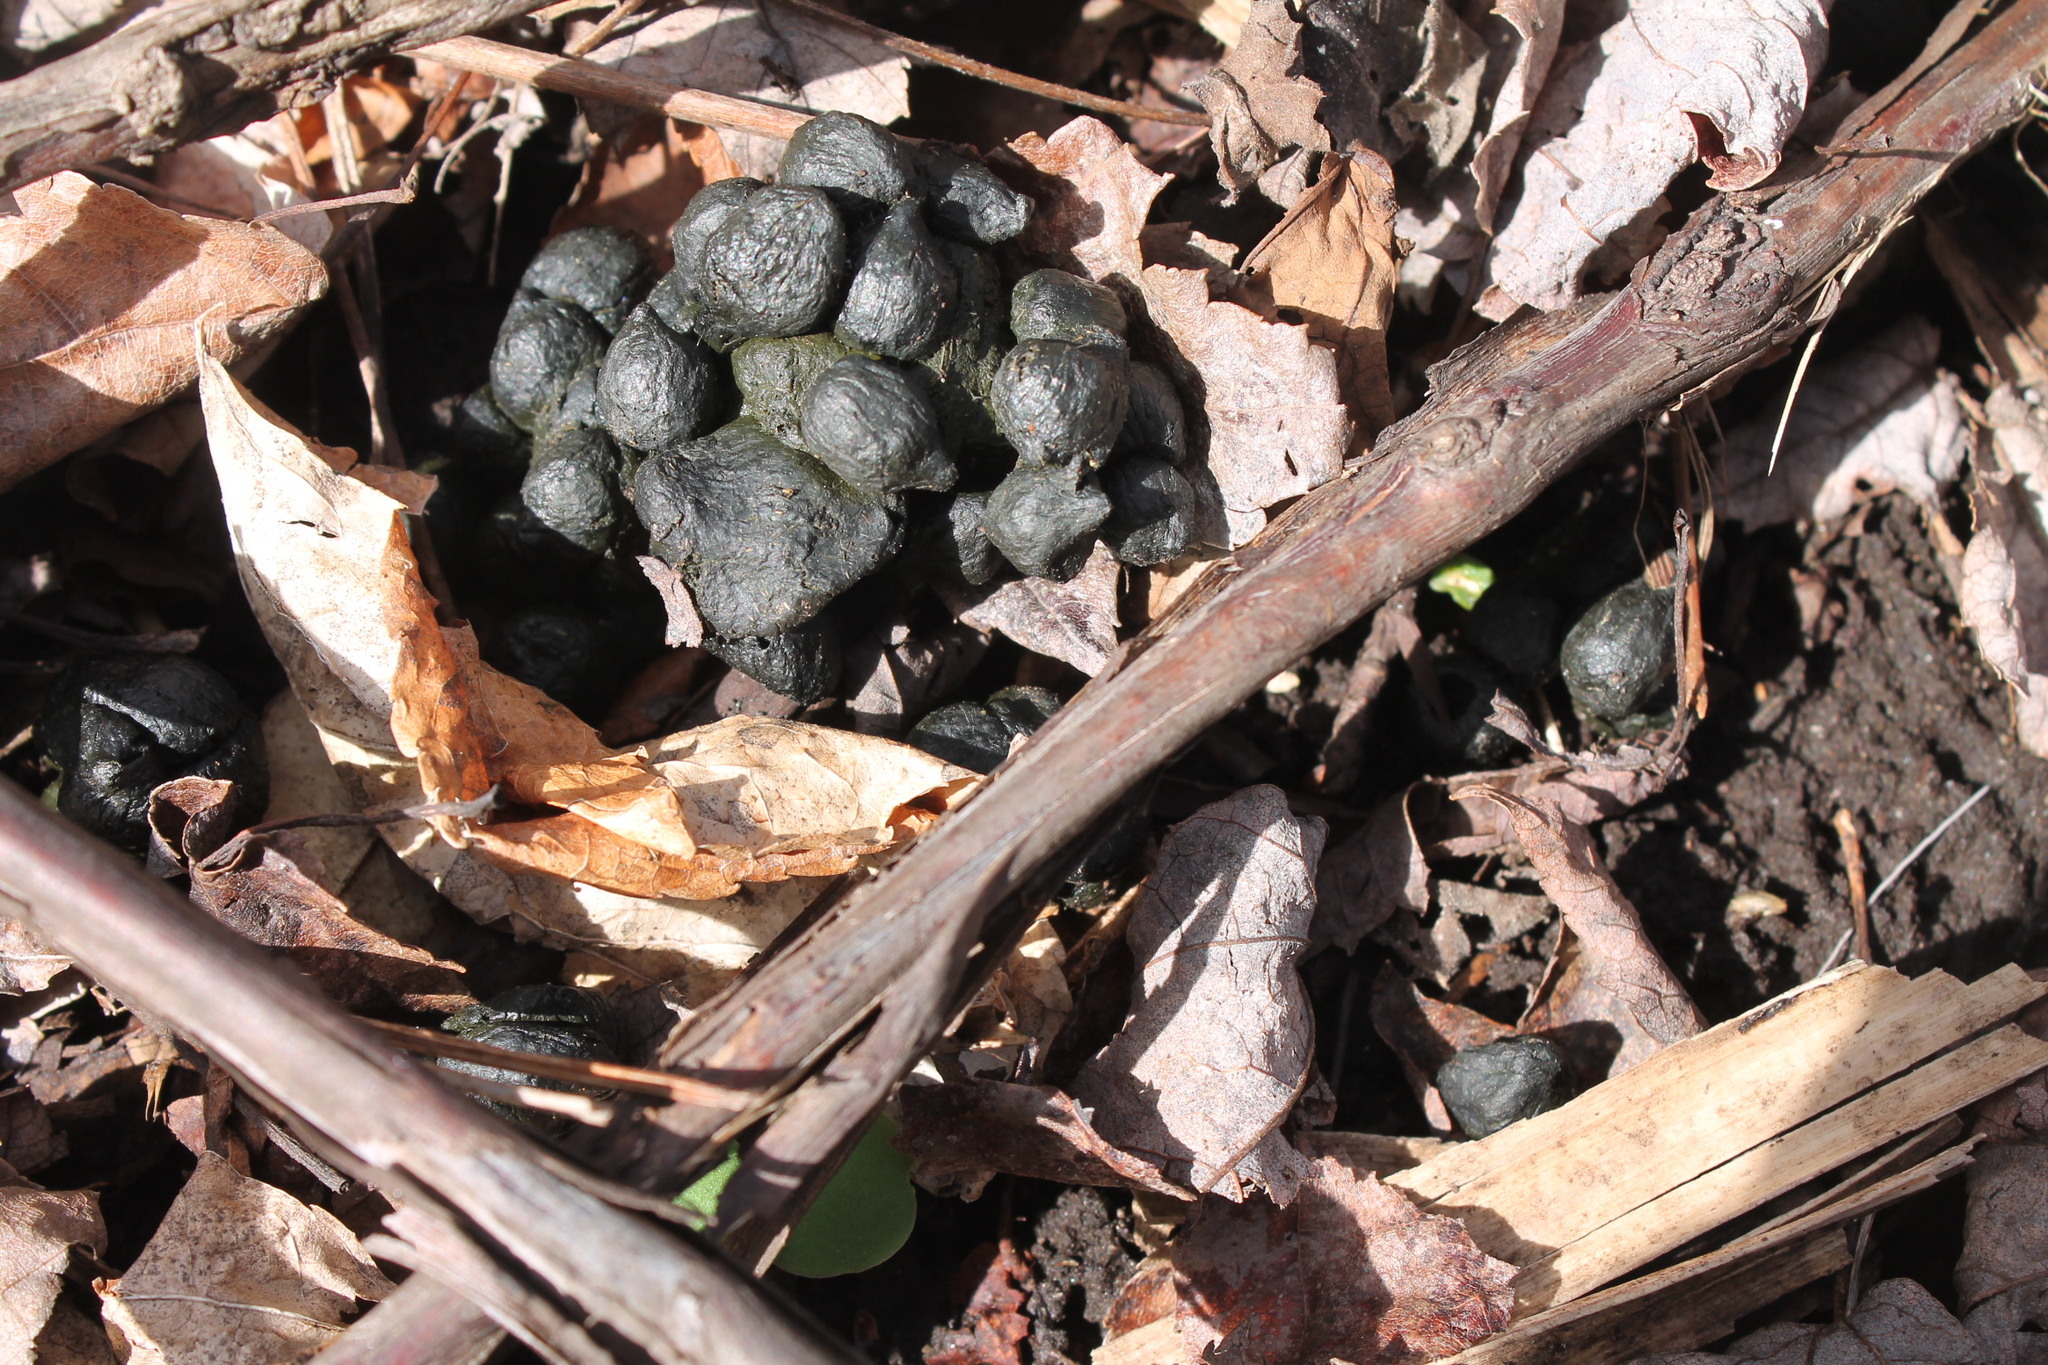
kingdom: Animalia
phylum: Chordata
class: Mammalia
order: Artiodactyla
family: Cervidae
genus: Odocoileus
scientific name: Odocoileus virginianus
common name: White-tailed deer
